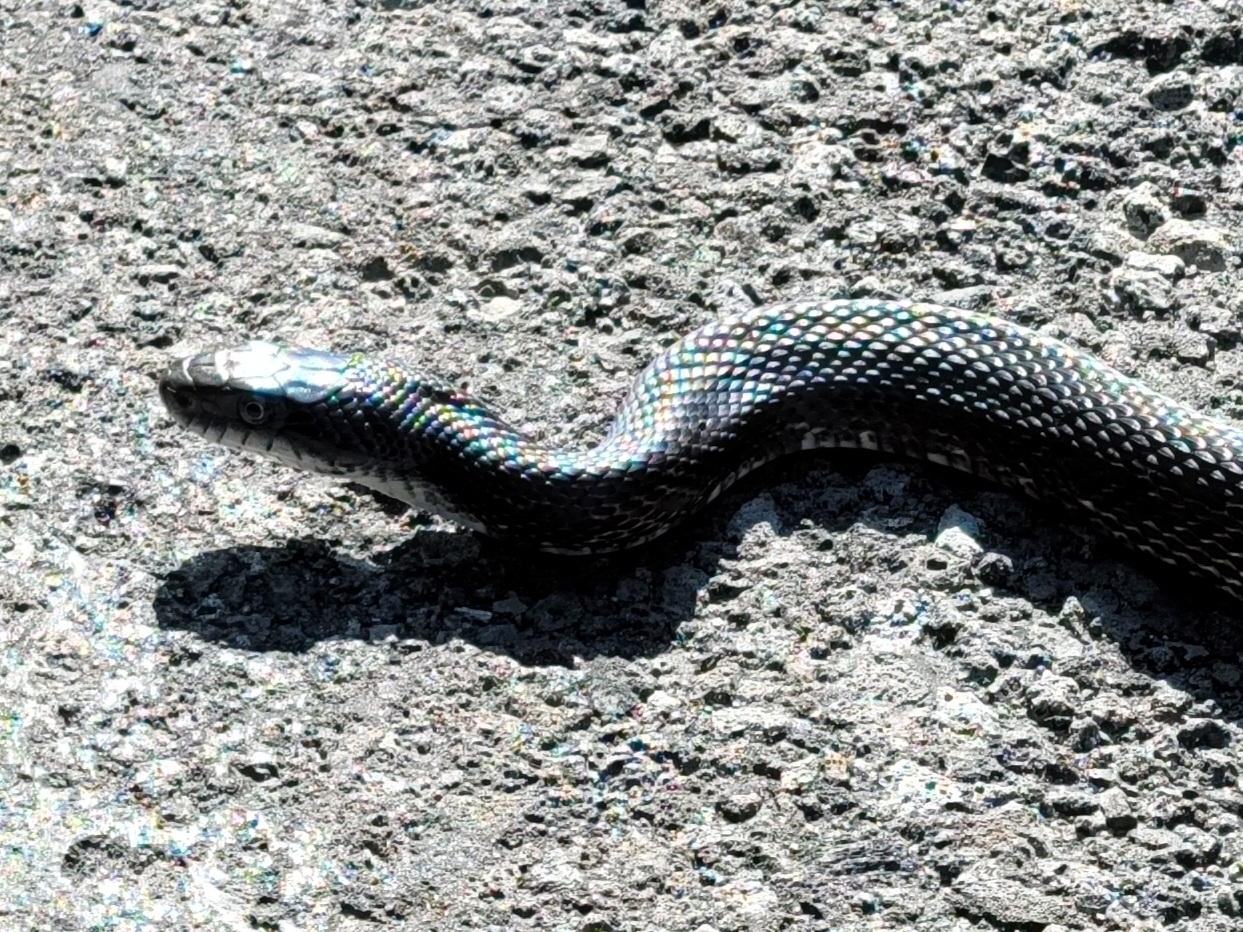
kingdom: Animalia
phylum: Chordata
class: Squamata
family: Colubridae
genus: Pantherophis
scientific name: Pantherophis spiloides
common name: Gray rat snake
